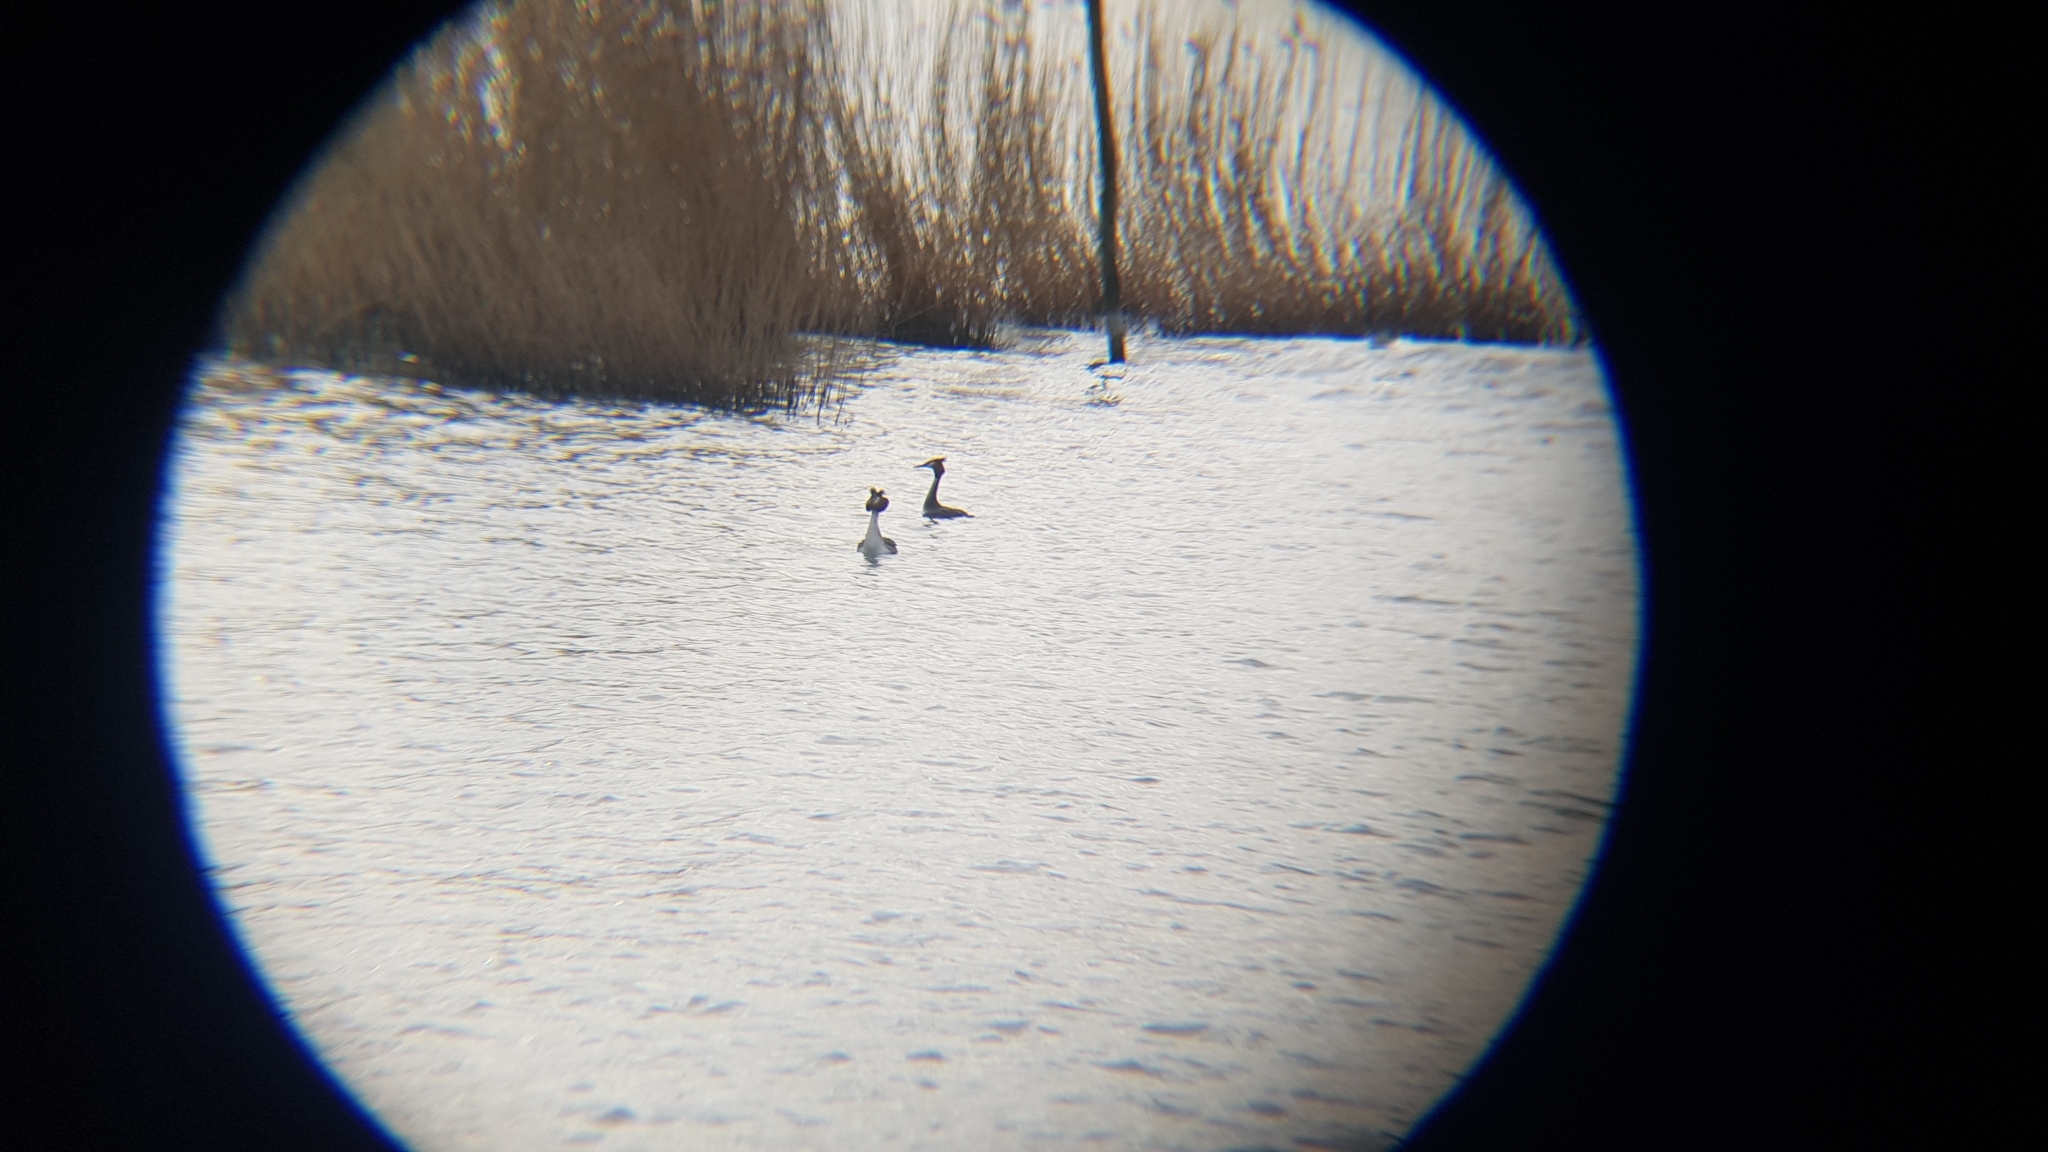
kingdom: Animalia
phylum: Chordata
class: Aves
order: Podicipediformes
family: Podicipedidae
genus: Podiceps
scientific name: Podiceps cristatus
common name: Great crested grebe
